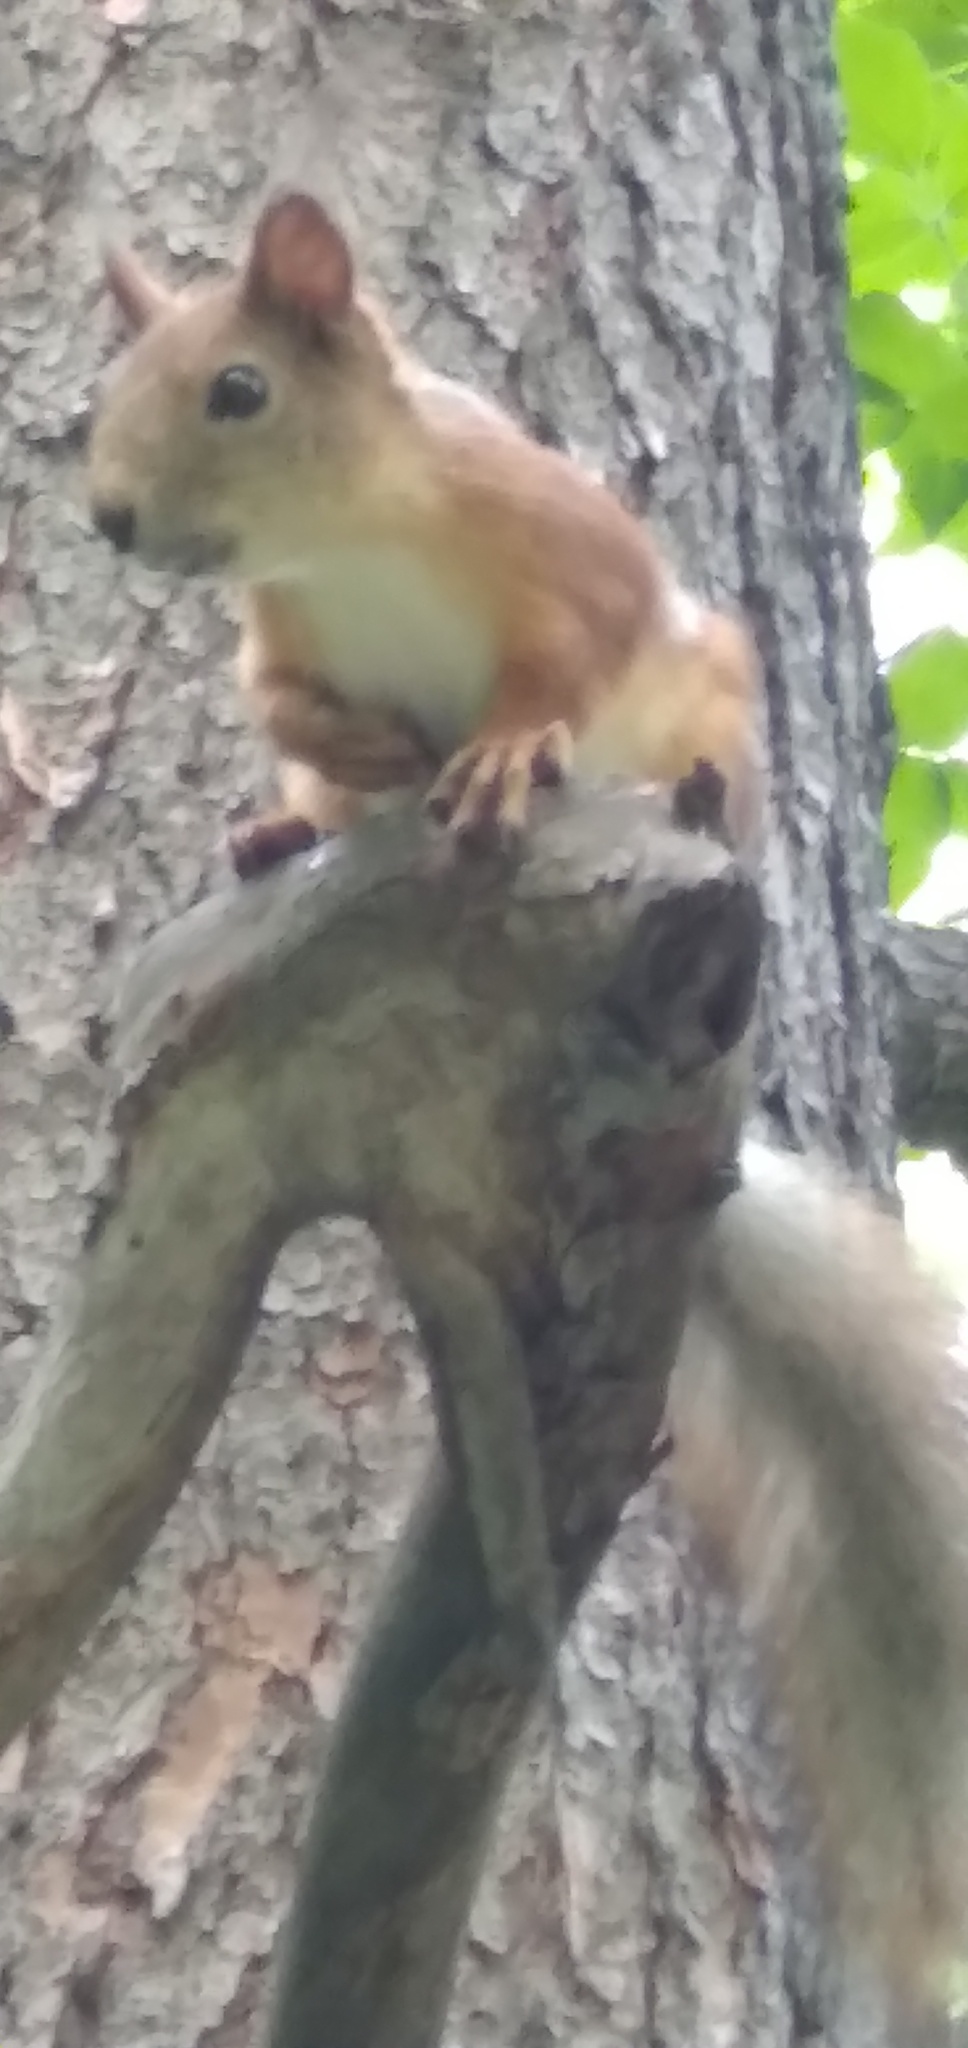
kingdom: Animalia
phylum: Chordata
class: Mammalia
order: Rodentia
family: Sciuridae
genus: Sciurus
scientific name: Sciurus vulgaris
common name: Eurasian red squirrel
